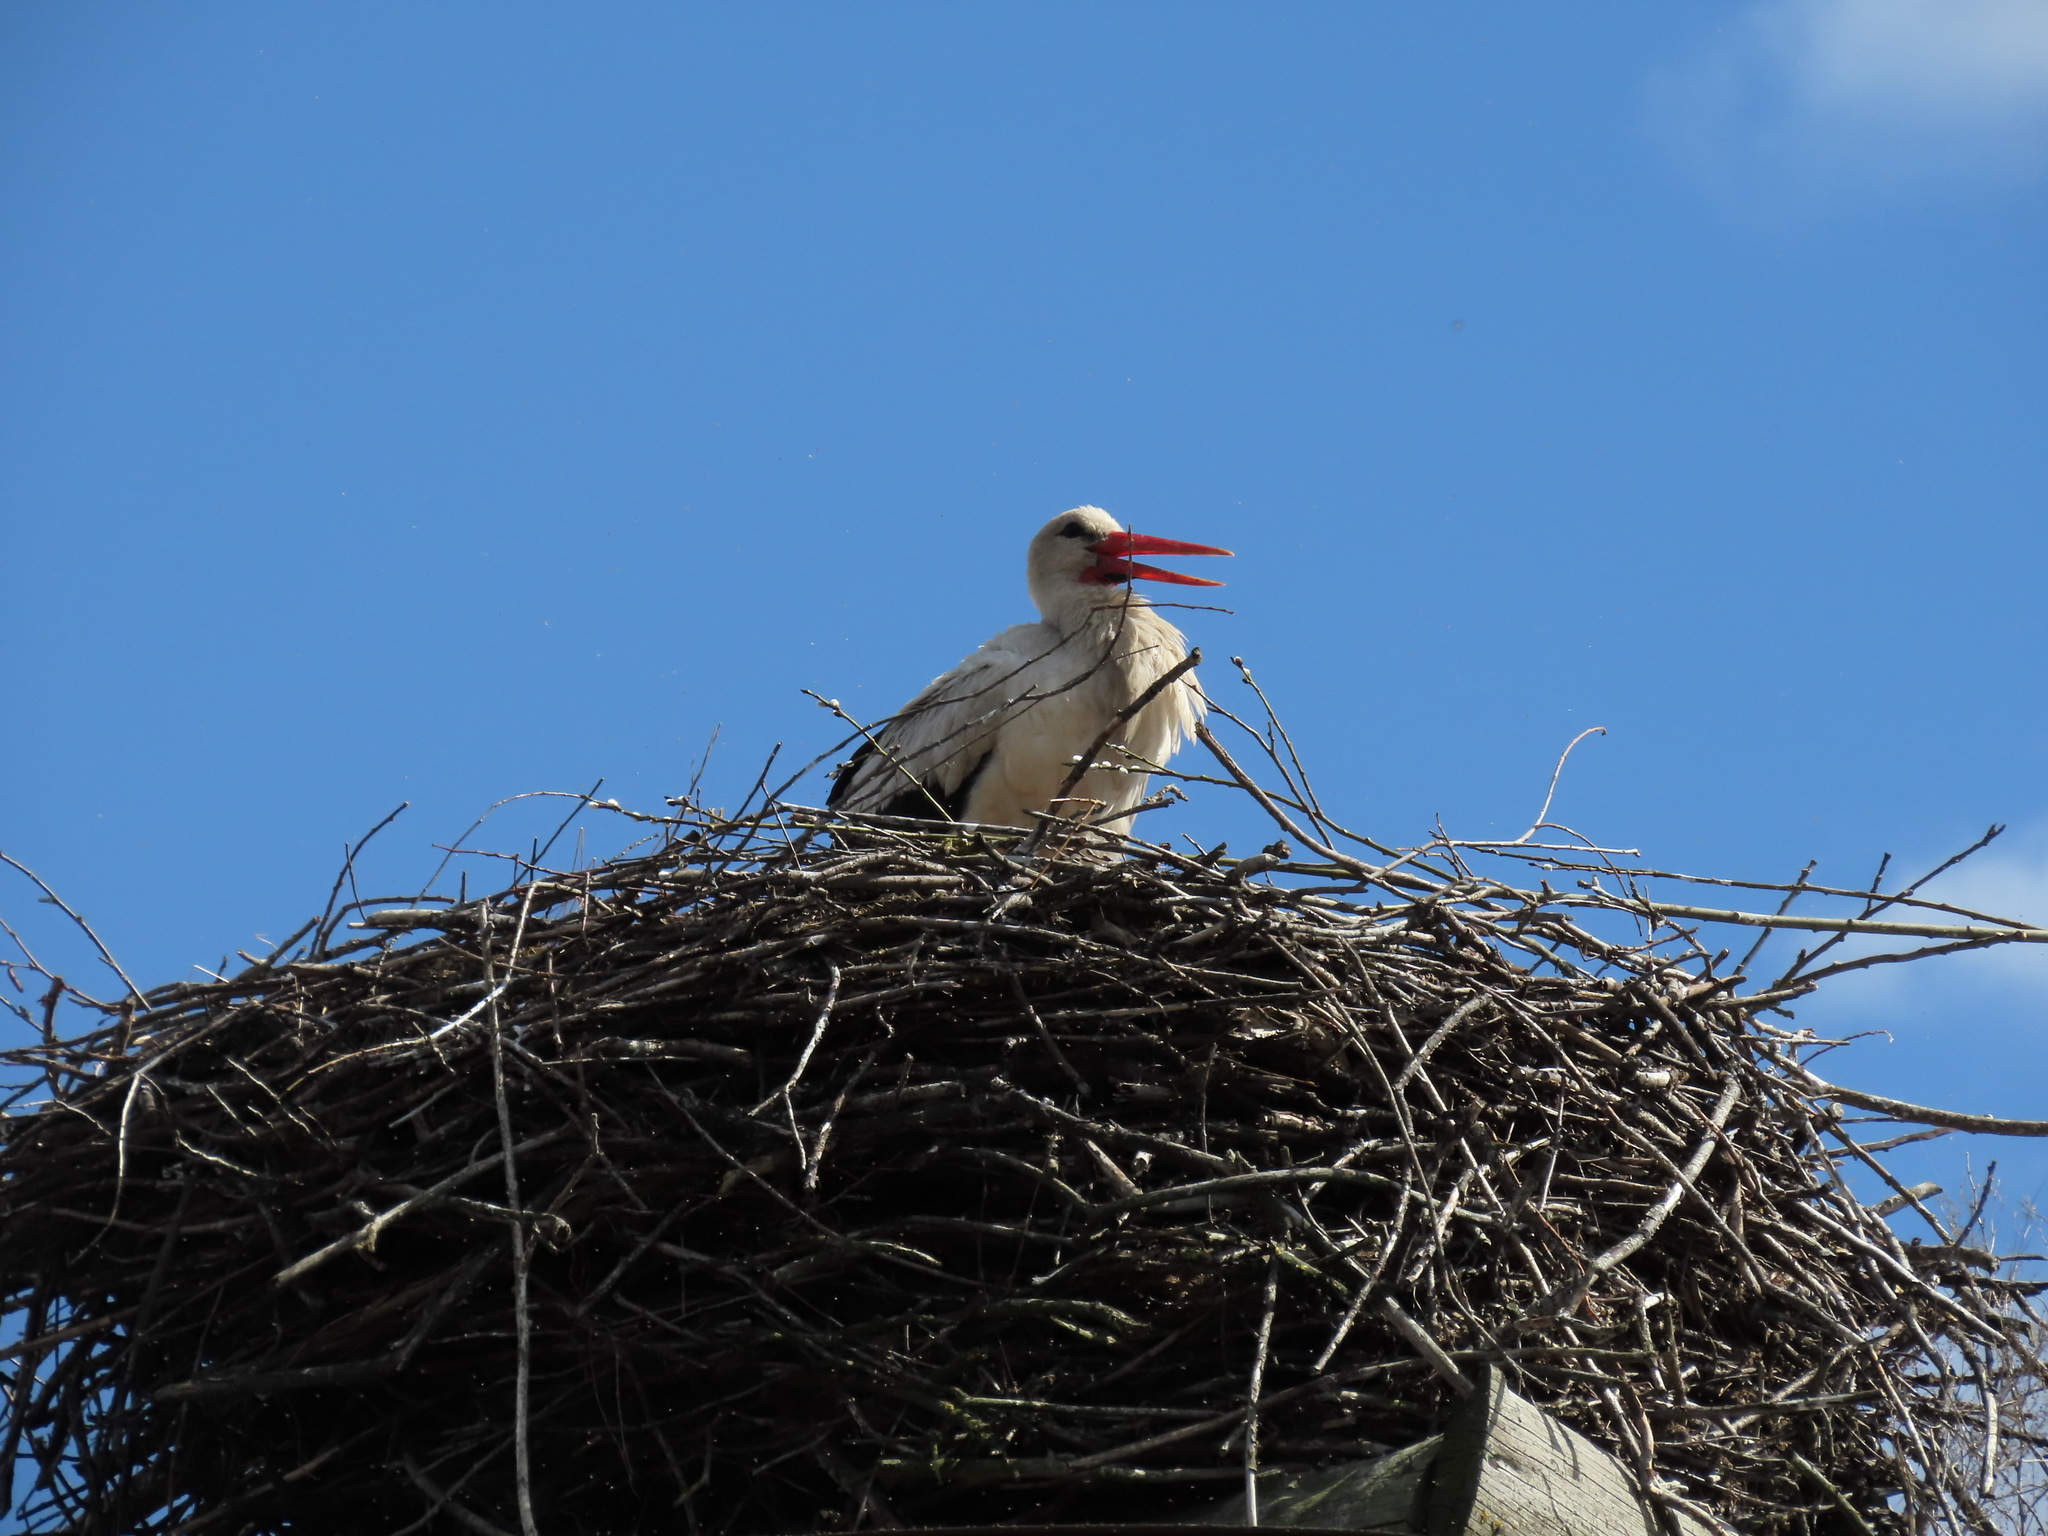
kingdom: Animalia
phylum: Chordata
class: Aves
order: Ciconiiformes
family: Ciconiidae
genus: Ciconia
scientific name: Ciconia ciconia
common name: White stork
